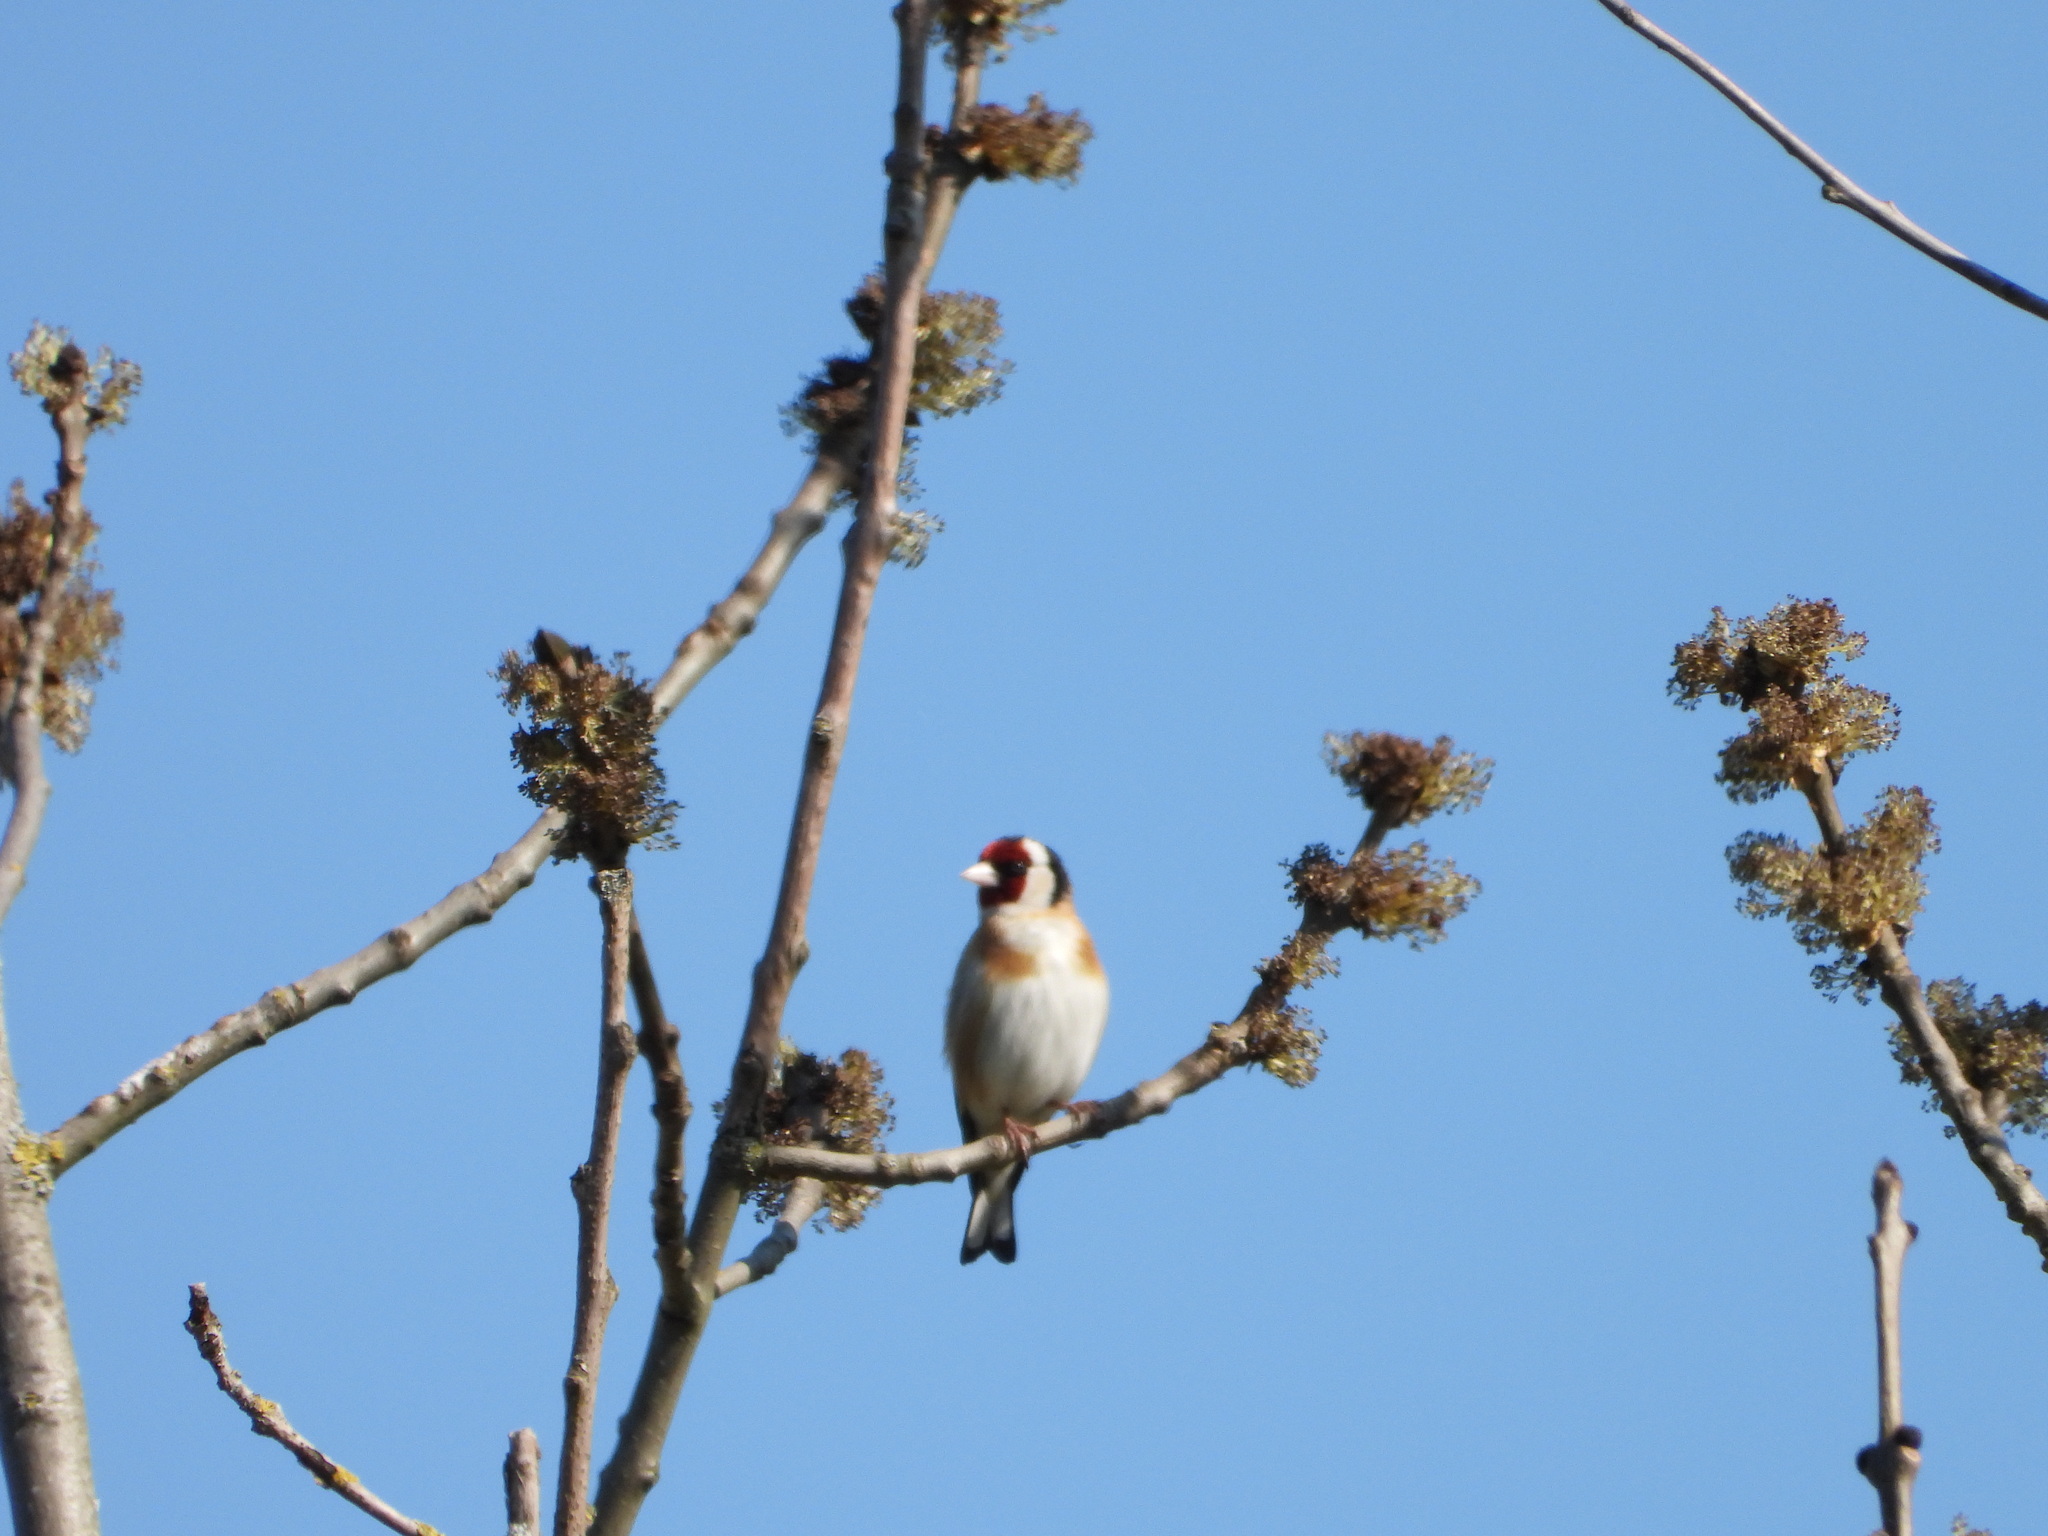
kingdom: Animalia
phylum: Chordata
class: Aves
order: Passeriformes
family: Fringillidae
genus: Carduelis
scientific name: Carduelis carduelis
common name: European goldfinch
